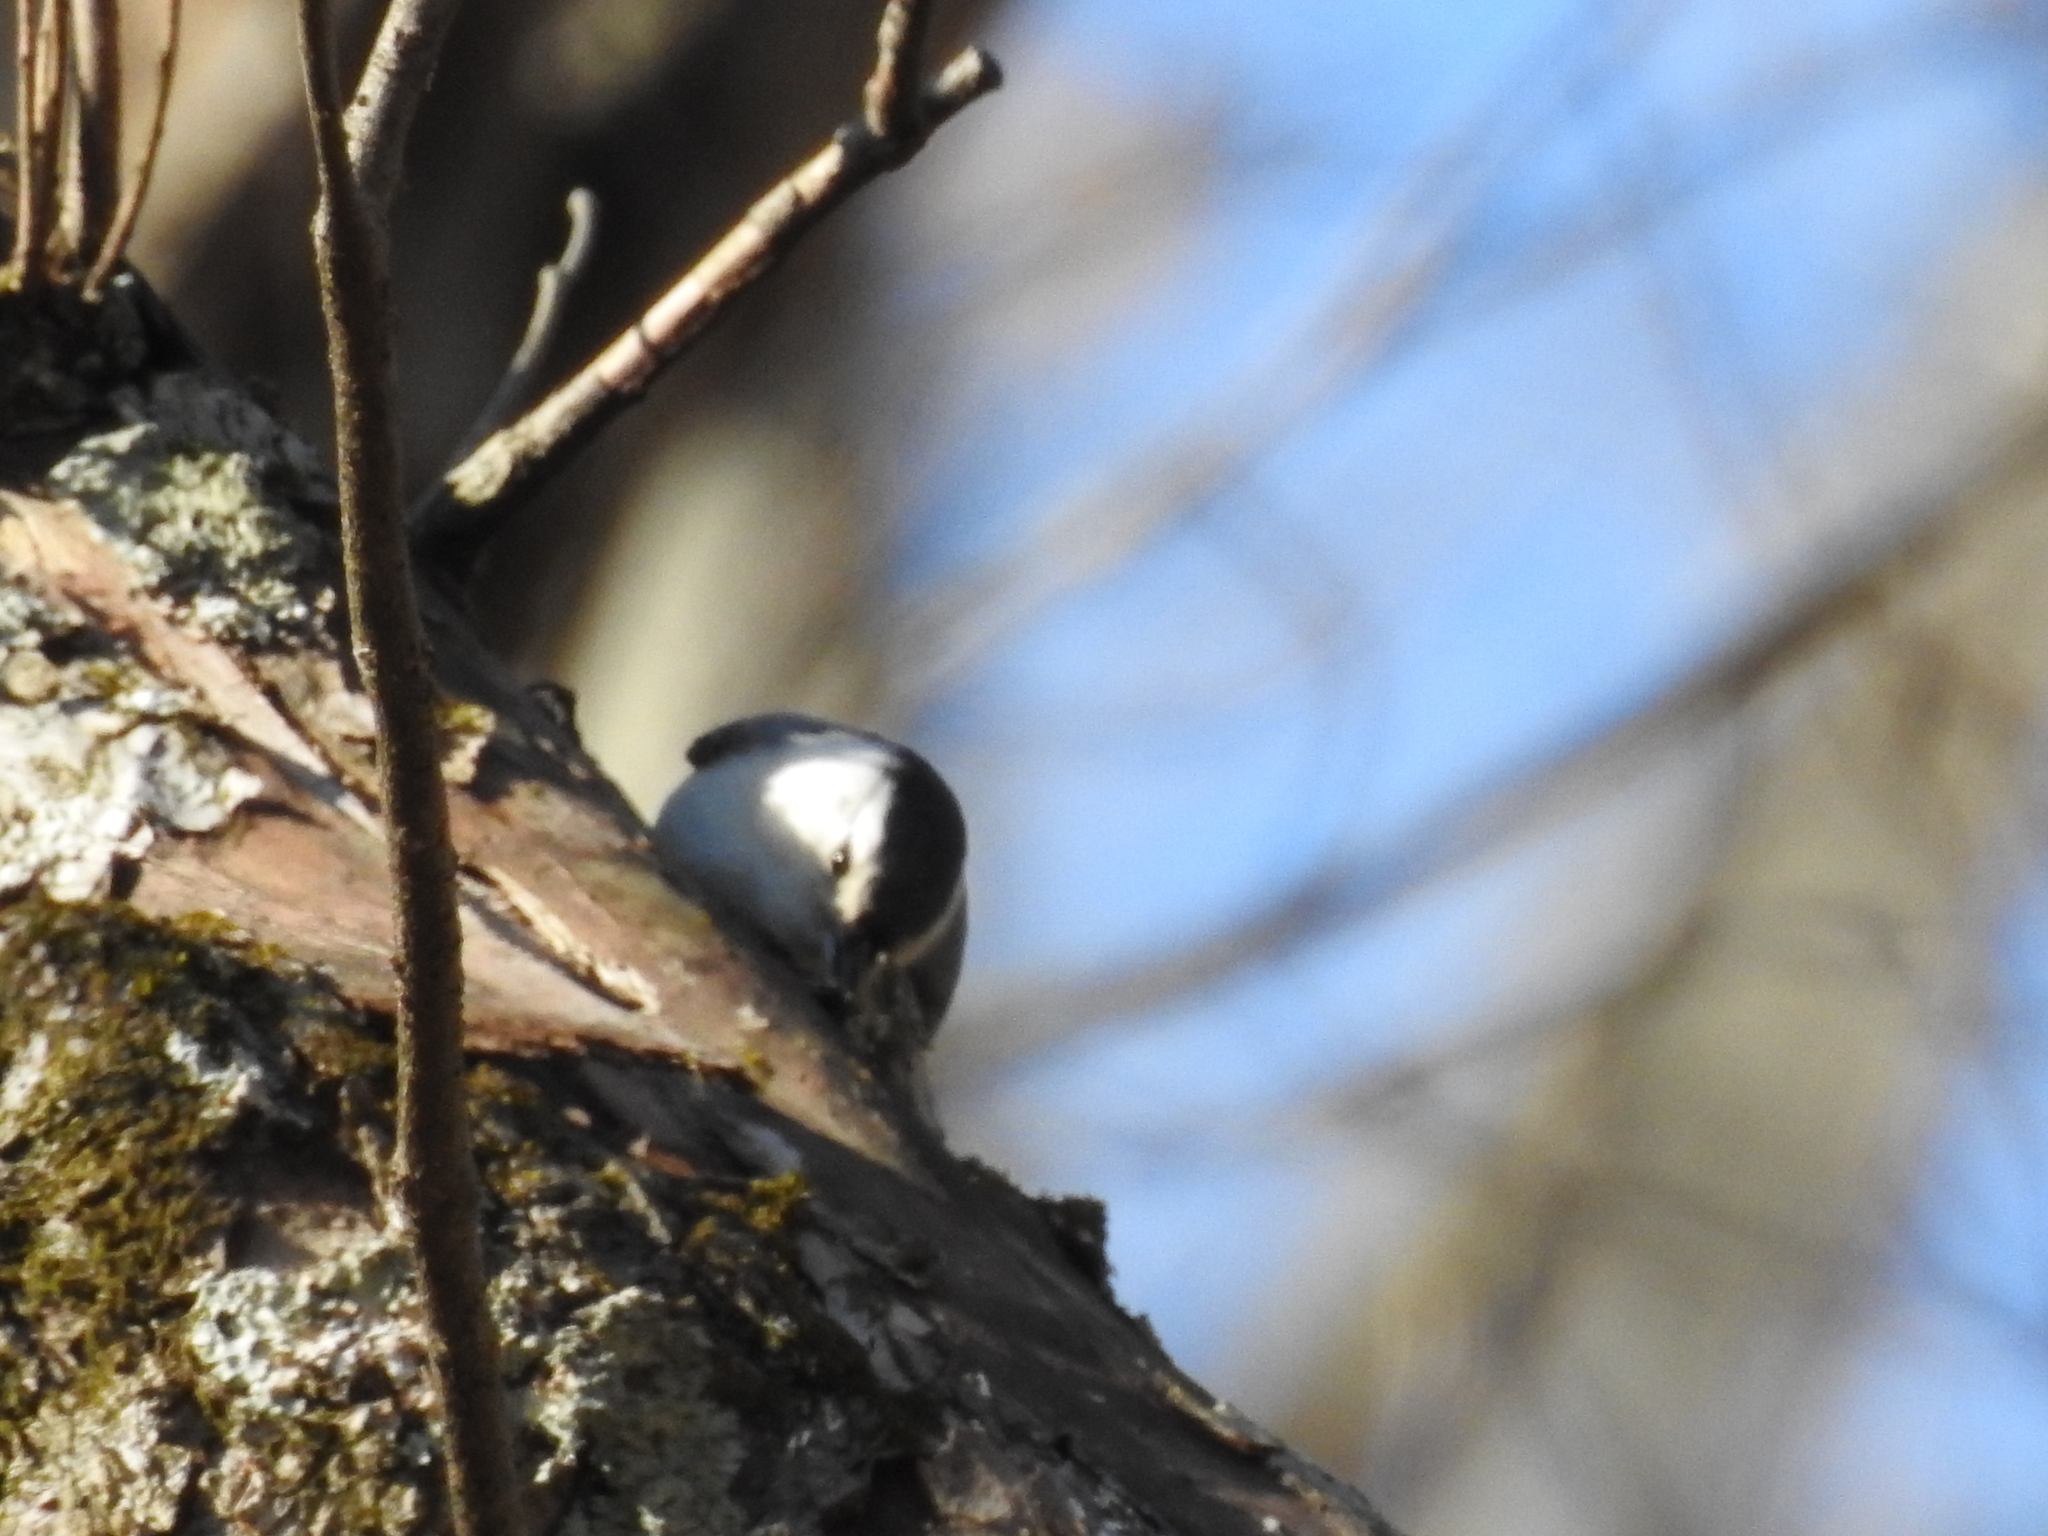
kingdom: Animalia
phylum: Chordata
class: Aves
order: Passeriformes
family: Sittidae
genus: Sitta
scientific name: Sitta carolinensis
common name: White-breasted nuthatch
